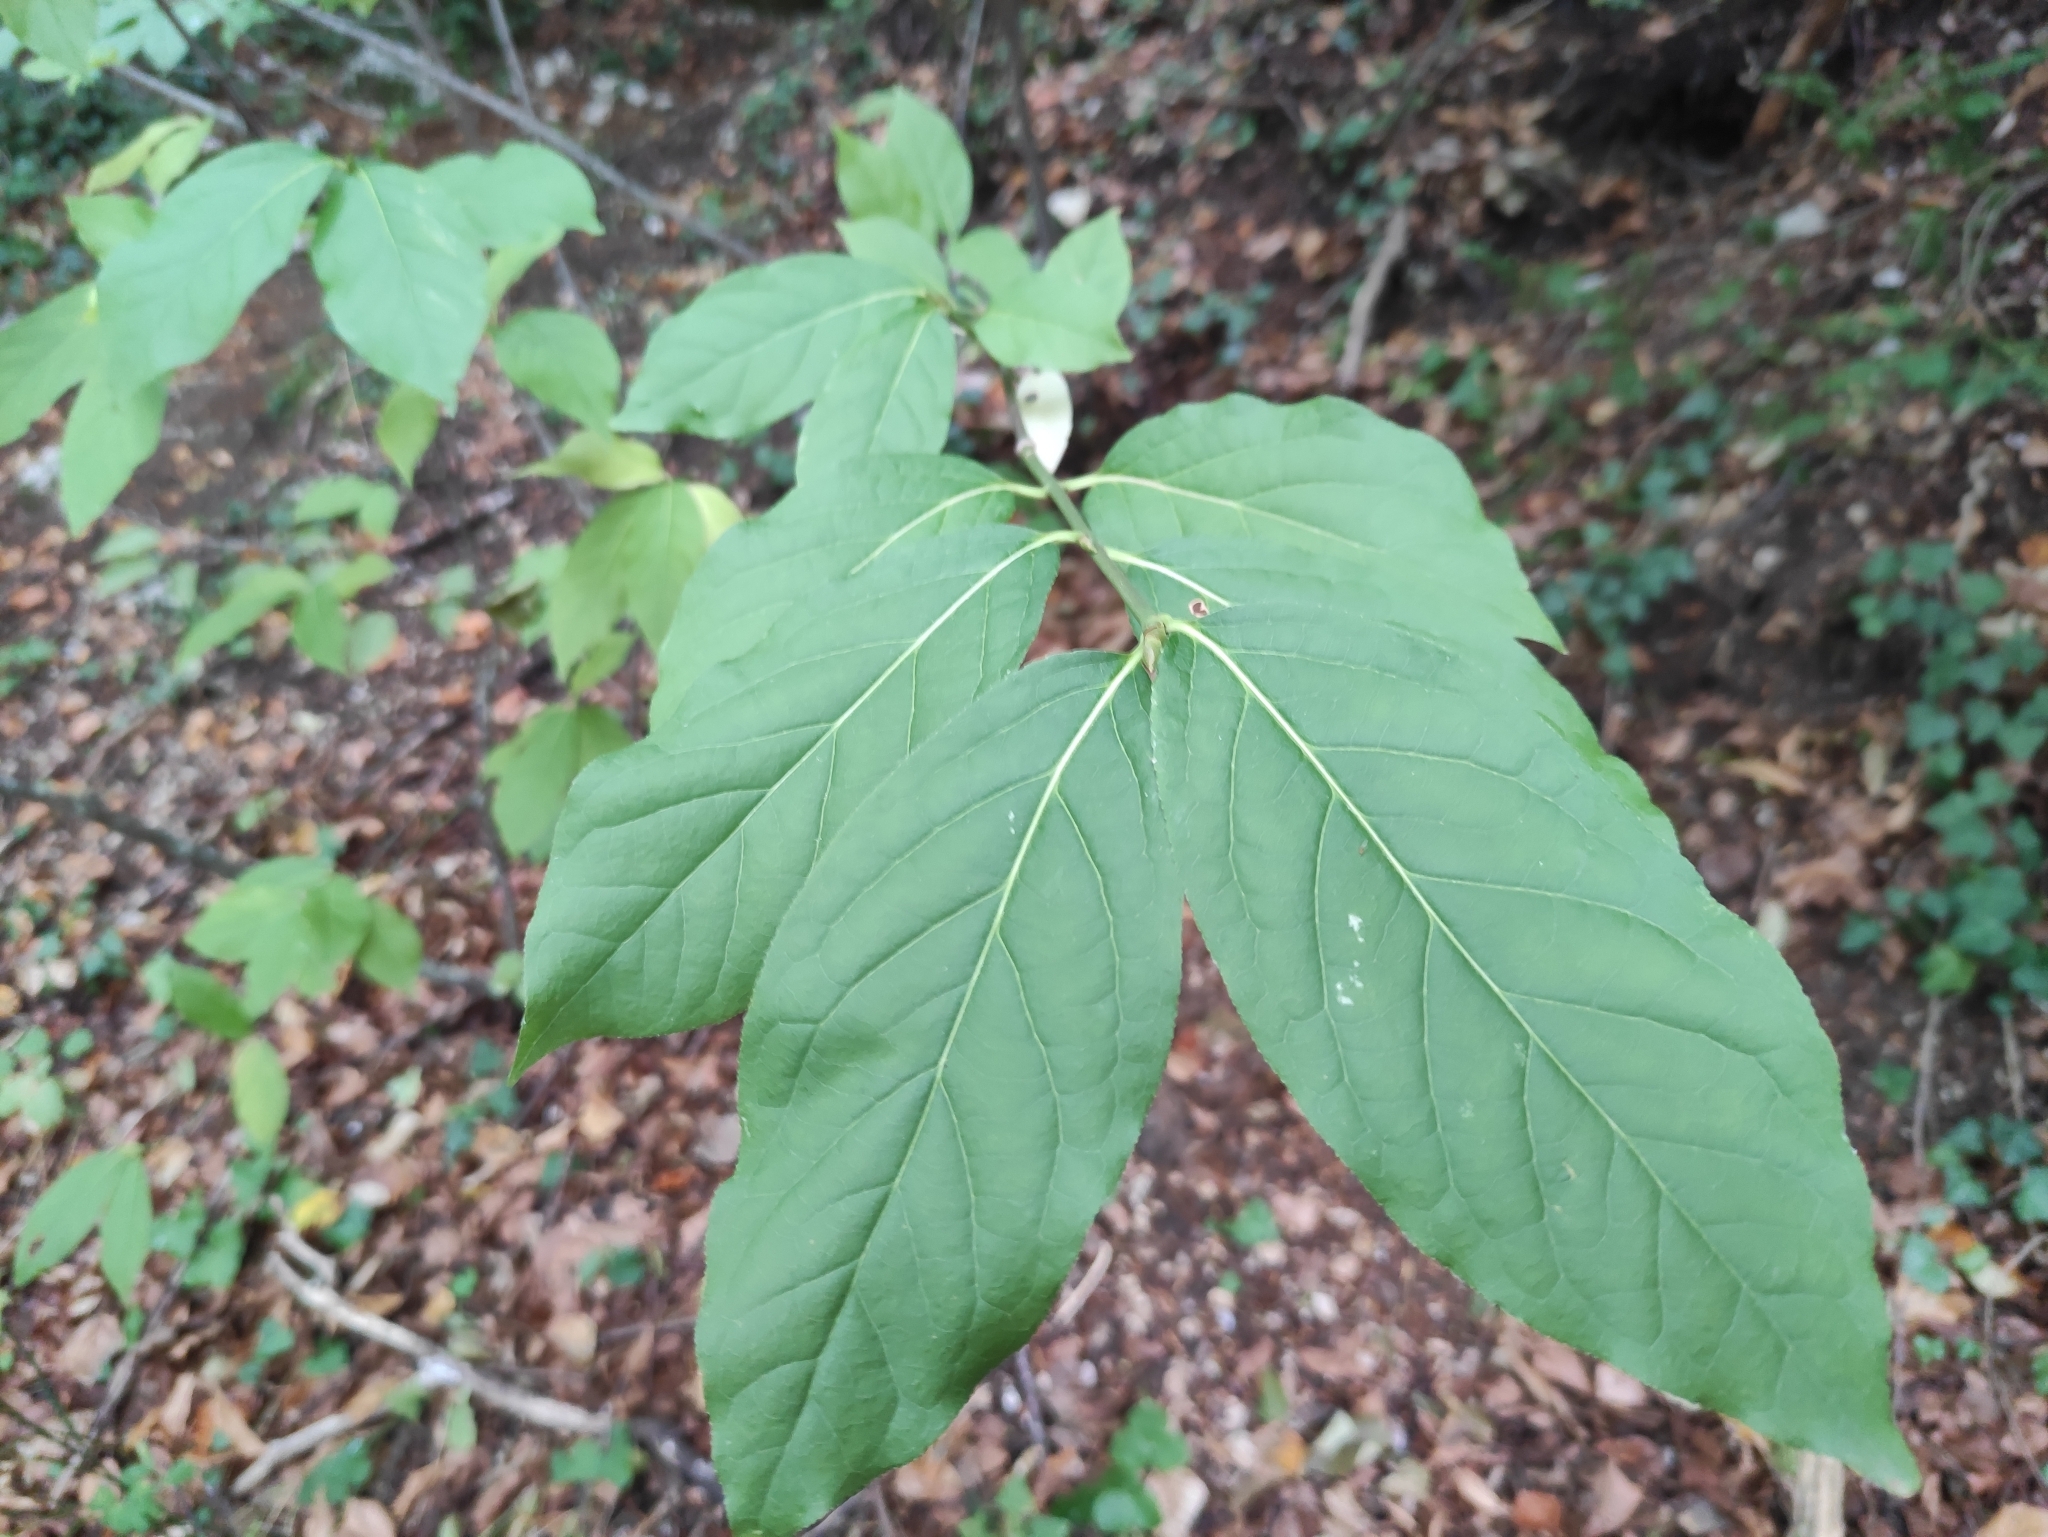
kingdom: Plantae
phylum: Tracheophyta
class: Magnoliopsida
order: Celastrales
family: Celastraceae
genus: Euonymus
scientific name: Euonymus latifolius
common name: Large-leaved spindle
